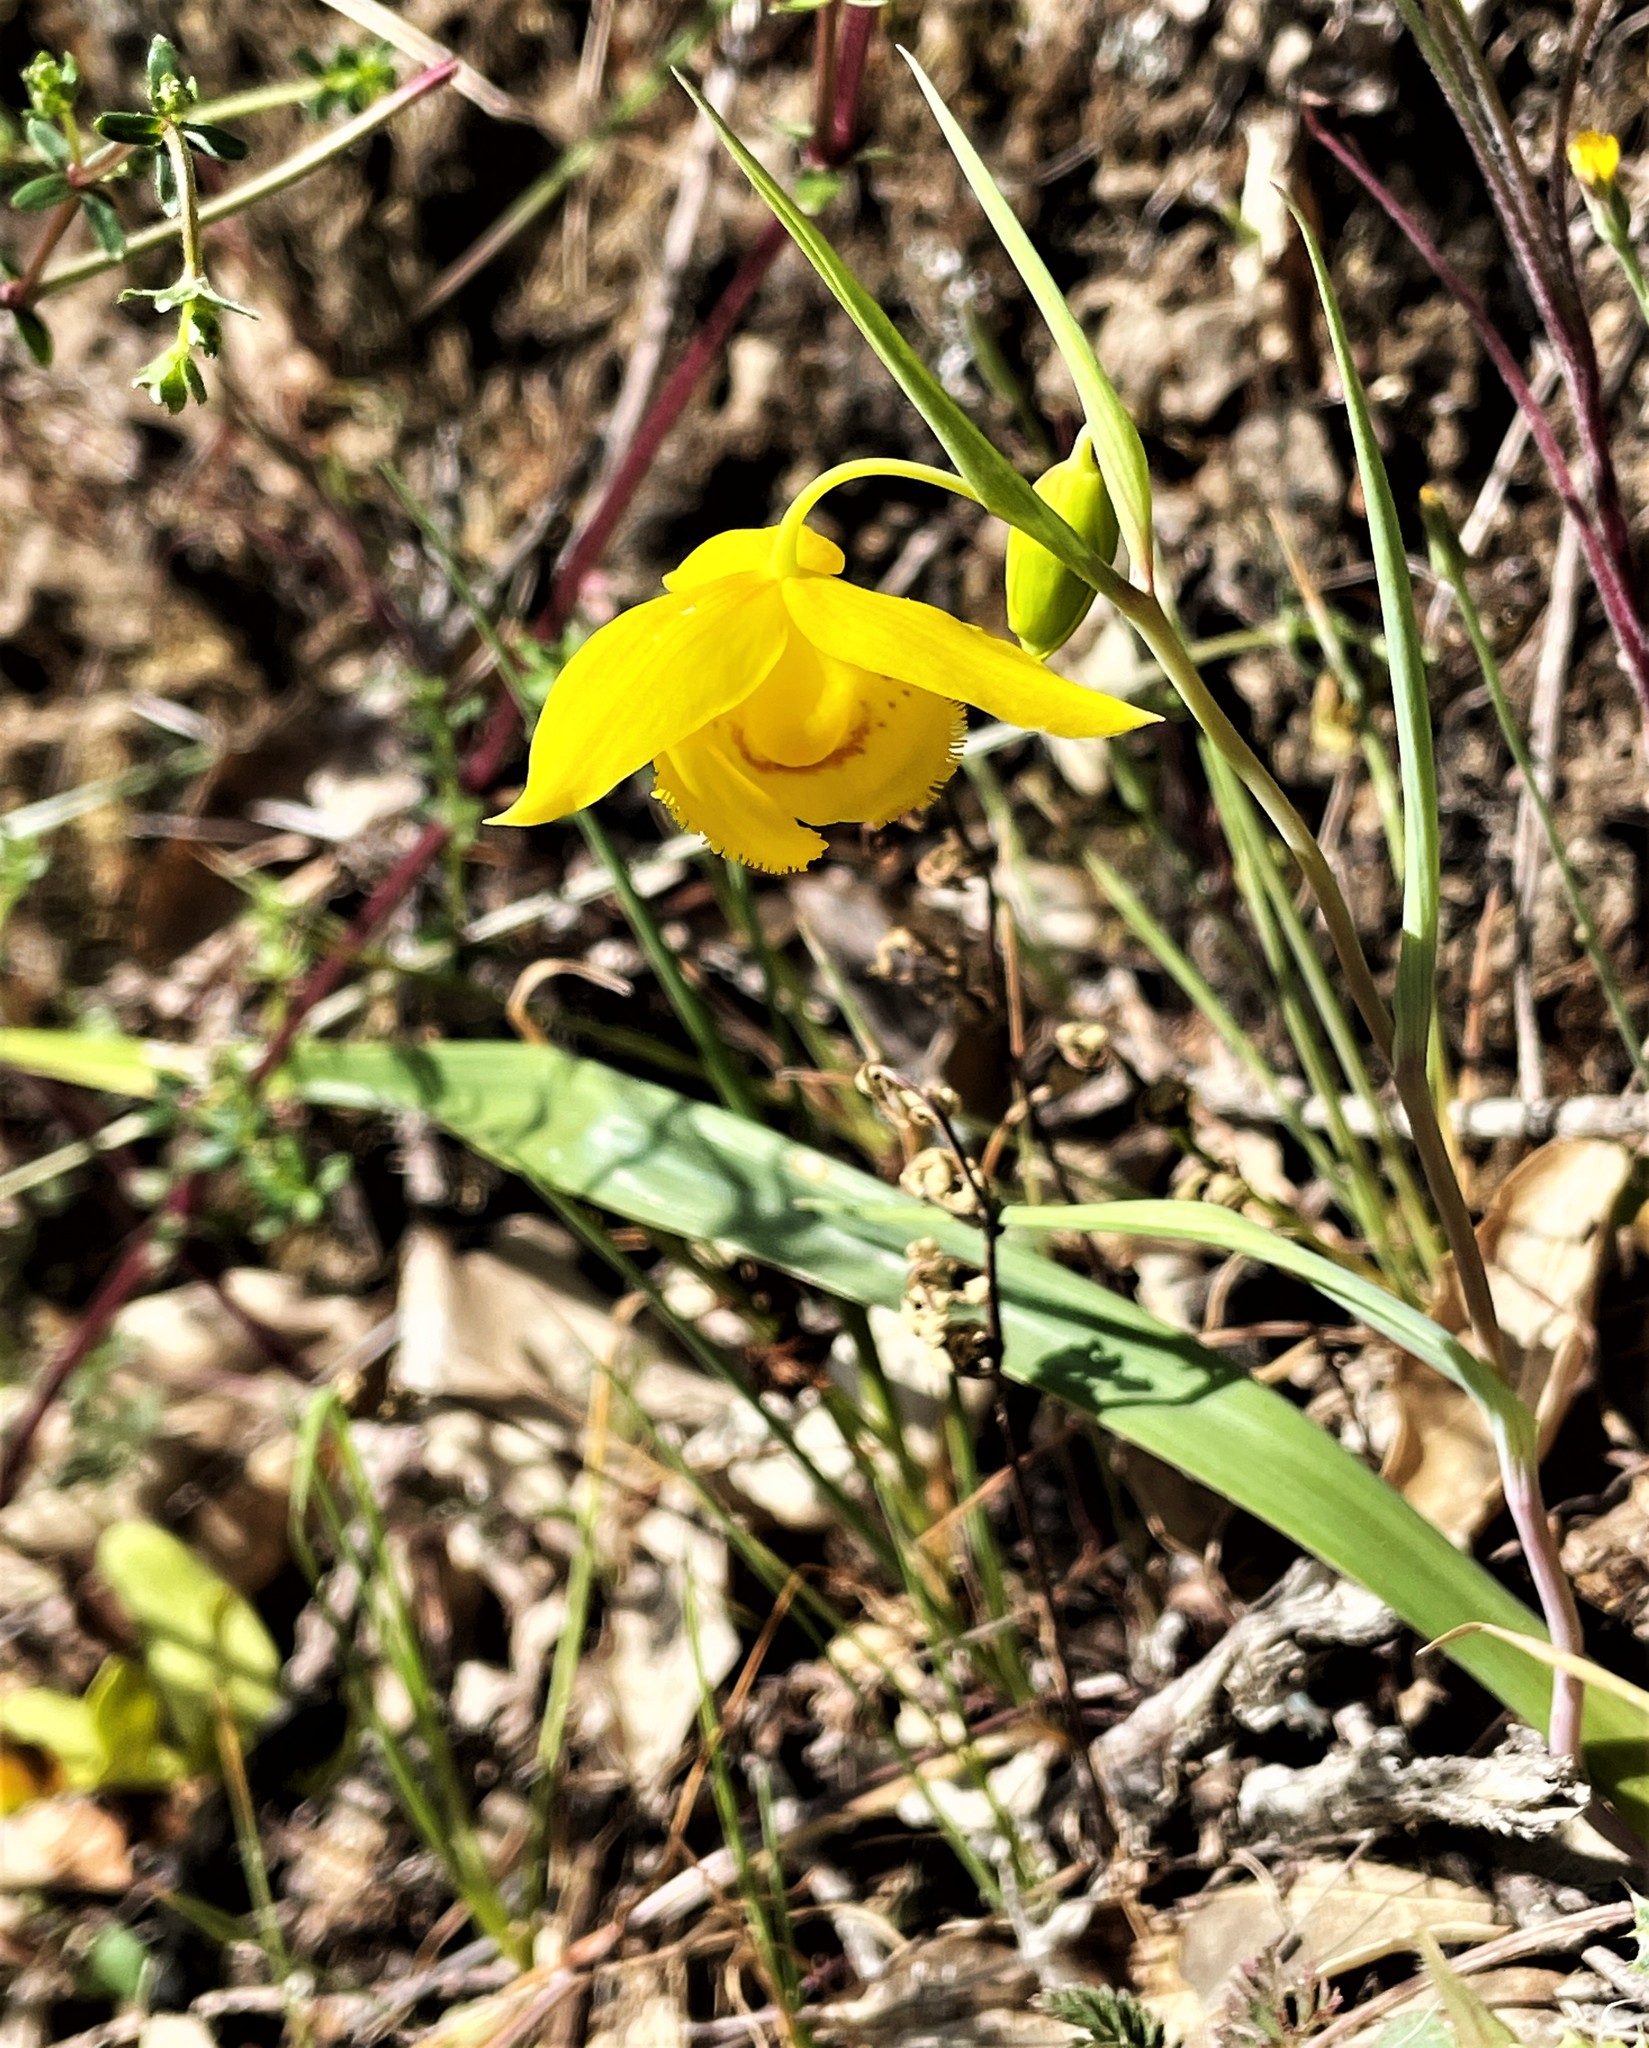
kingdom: Plantae
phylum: Tracheophyta
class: Liliopsida
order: Liliales
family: Liliaceae
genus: Calochortus
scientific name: Calochortus amabilis
